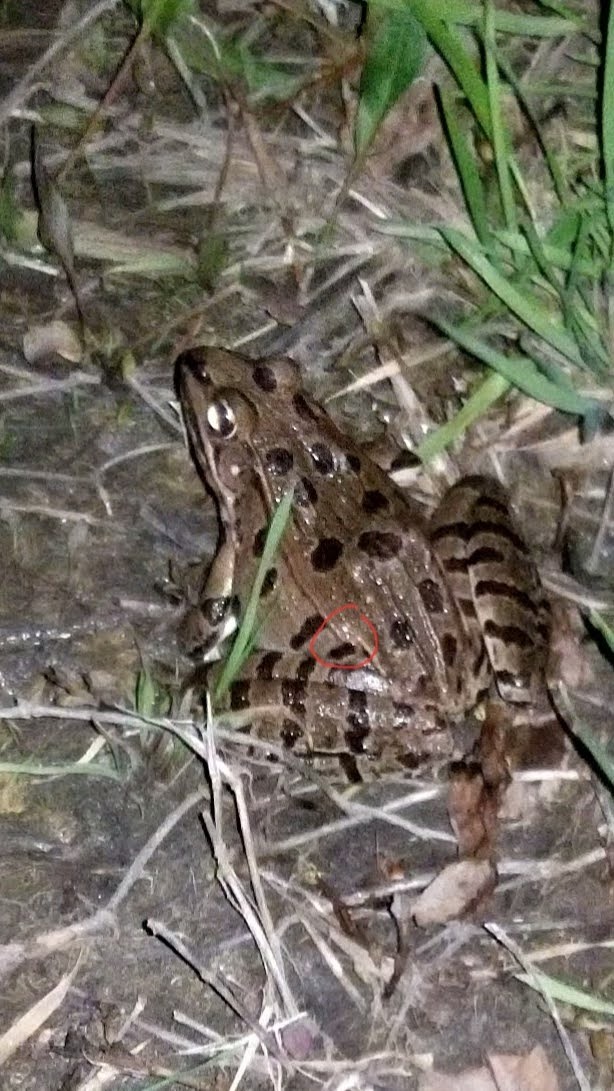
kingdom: Animalia
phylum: Chordata
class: Amphibia
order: Anura
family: Ranidae
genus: Lithobates
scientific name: Lithobates blairi
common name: Plains leopard frog
